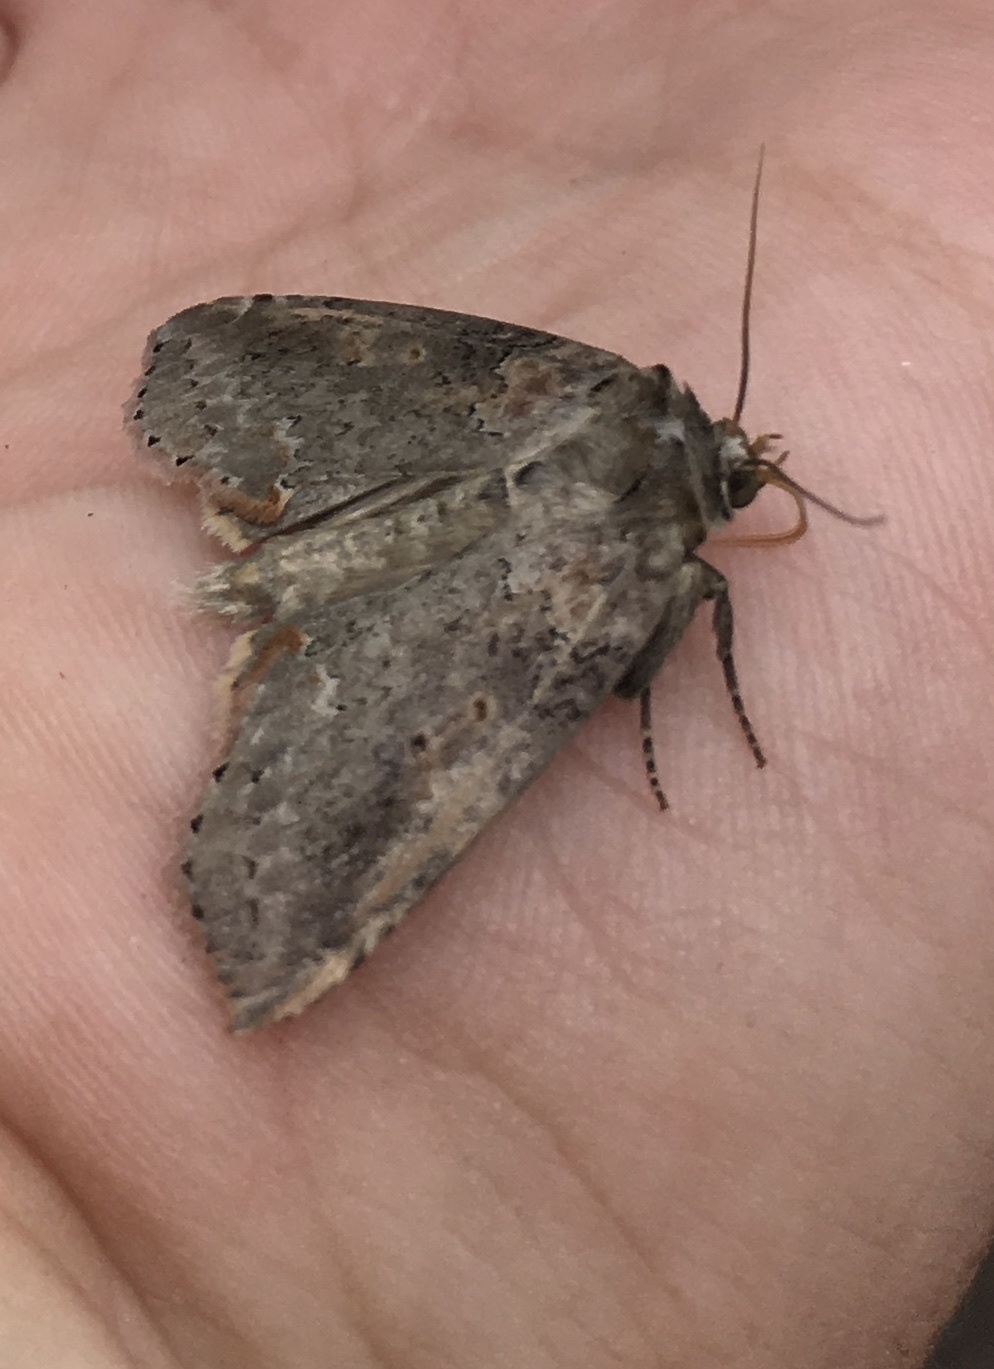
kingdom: Animalia
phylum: Arthropoda
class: Insecta
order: Lepidoptera
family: Drepanidae
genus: Pseudothyatira
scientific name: Pseudothyatira cymatophoroides
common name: Tufted thyatirid moth
